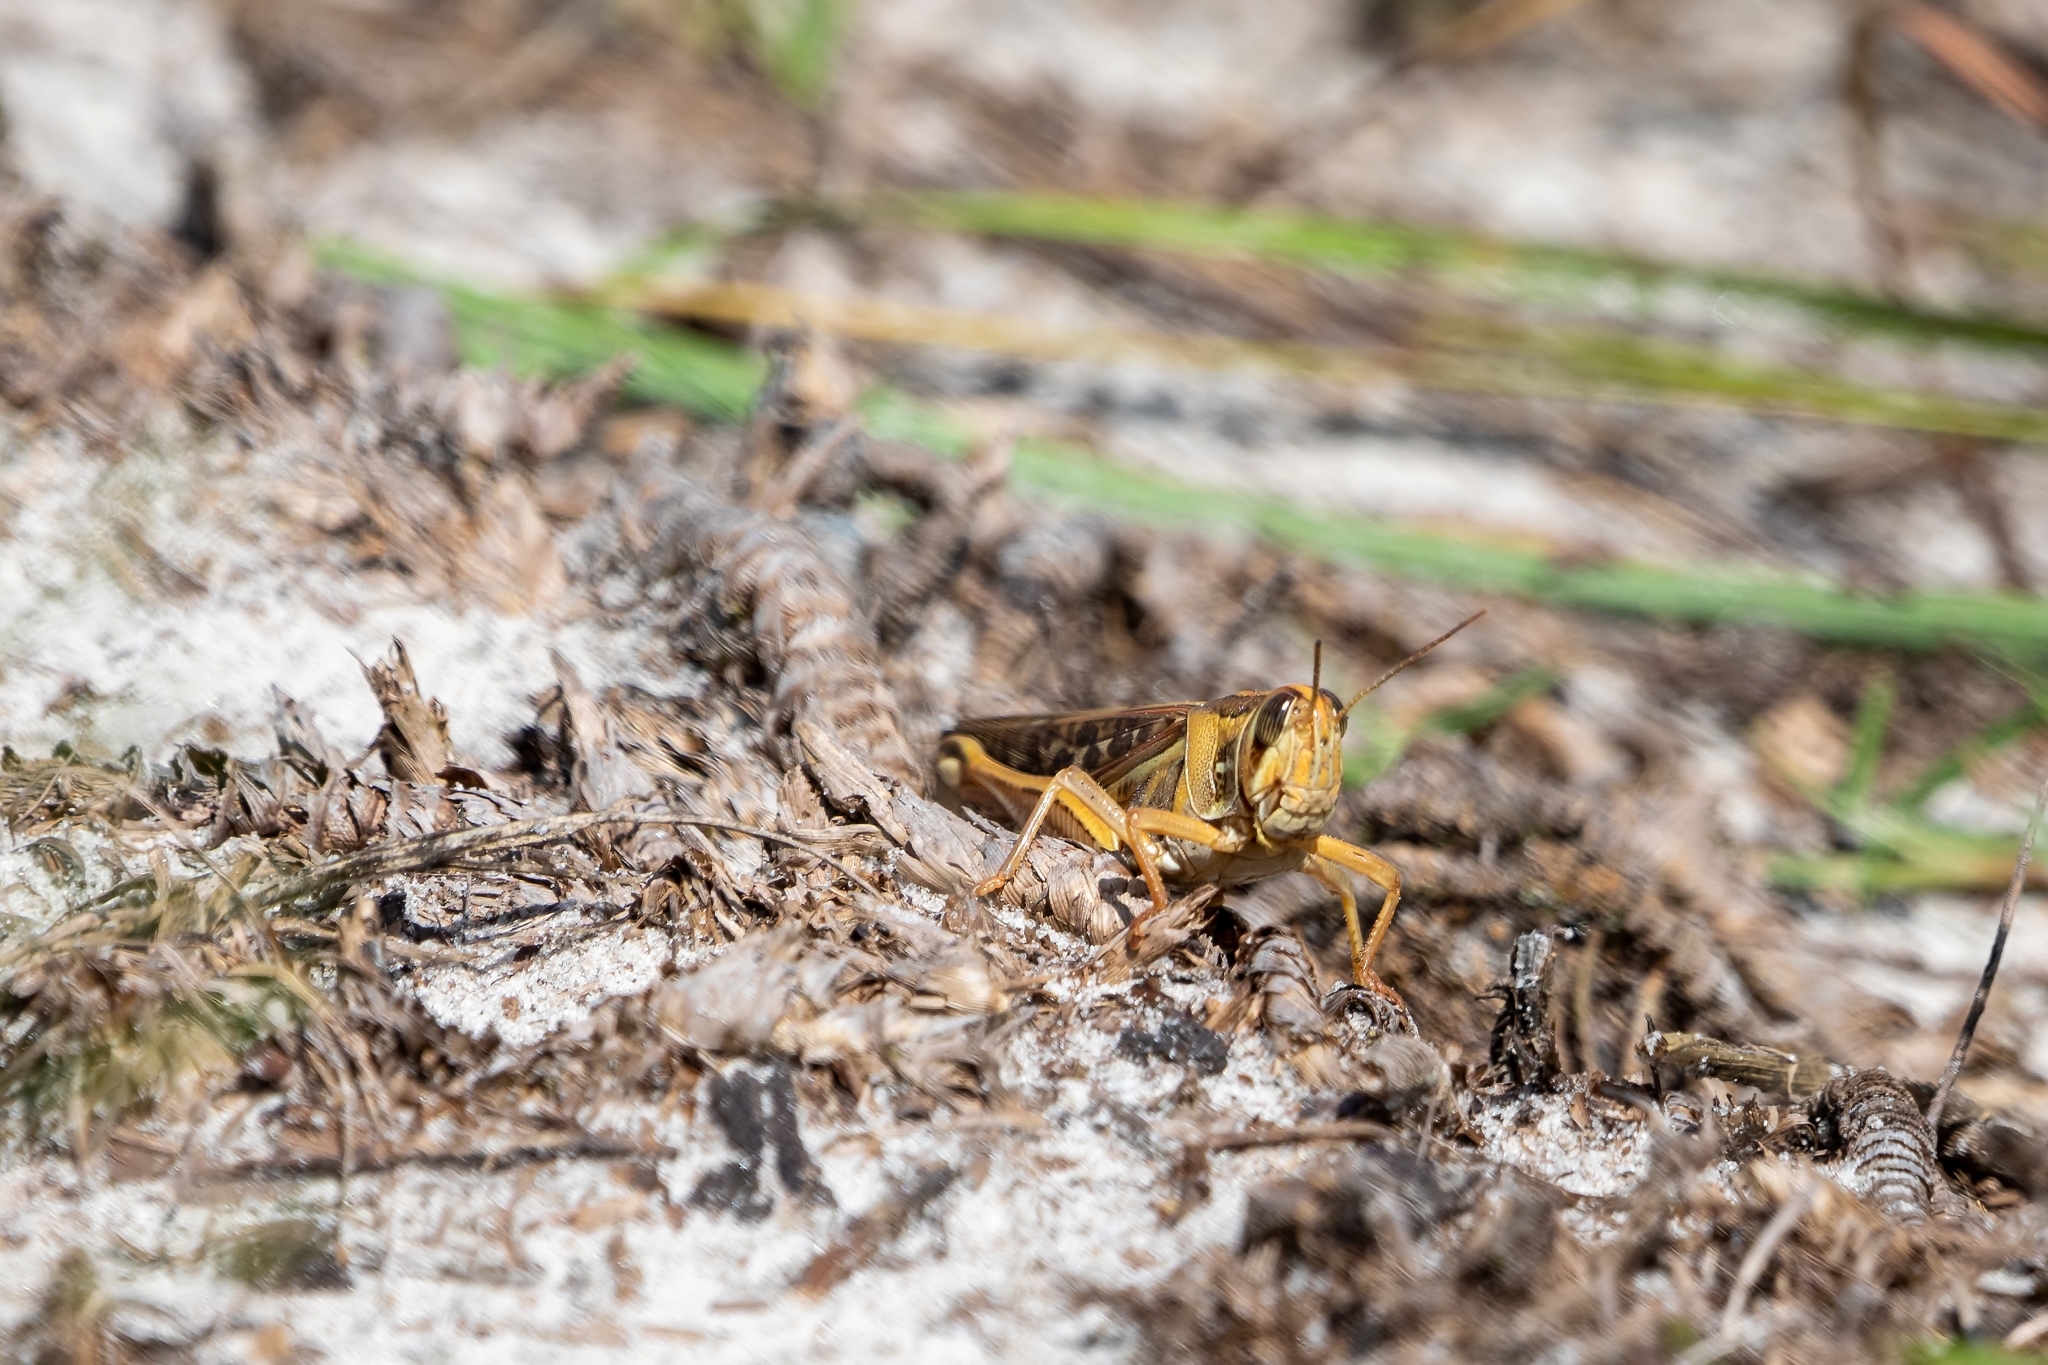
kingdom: Animalia
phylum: Arthropoda
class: Insecta
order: Orthoptera
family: Acrididae
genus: Schistocerca
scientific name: Schistocerca americana
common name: American bird locust
